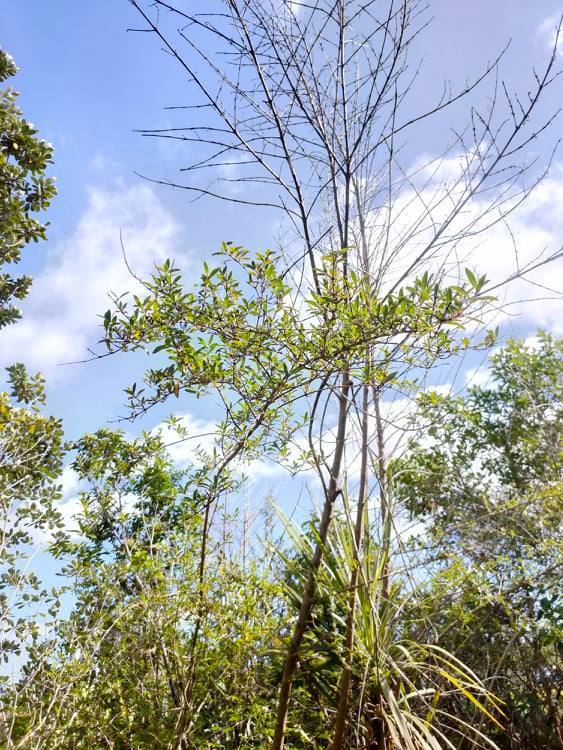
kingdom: Plantae
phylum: Tracheophyta
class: Magnoliopsida
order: Gentianales
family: Rubiaceae
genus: Coprosma
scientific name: Coprosma cunninghamii
